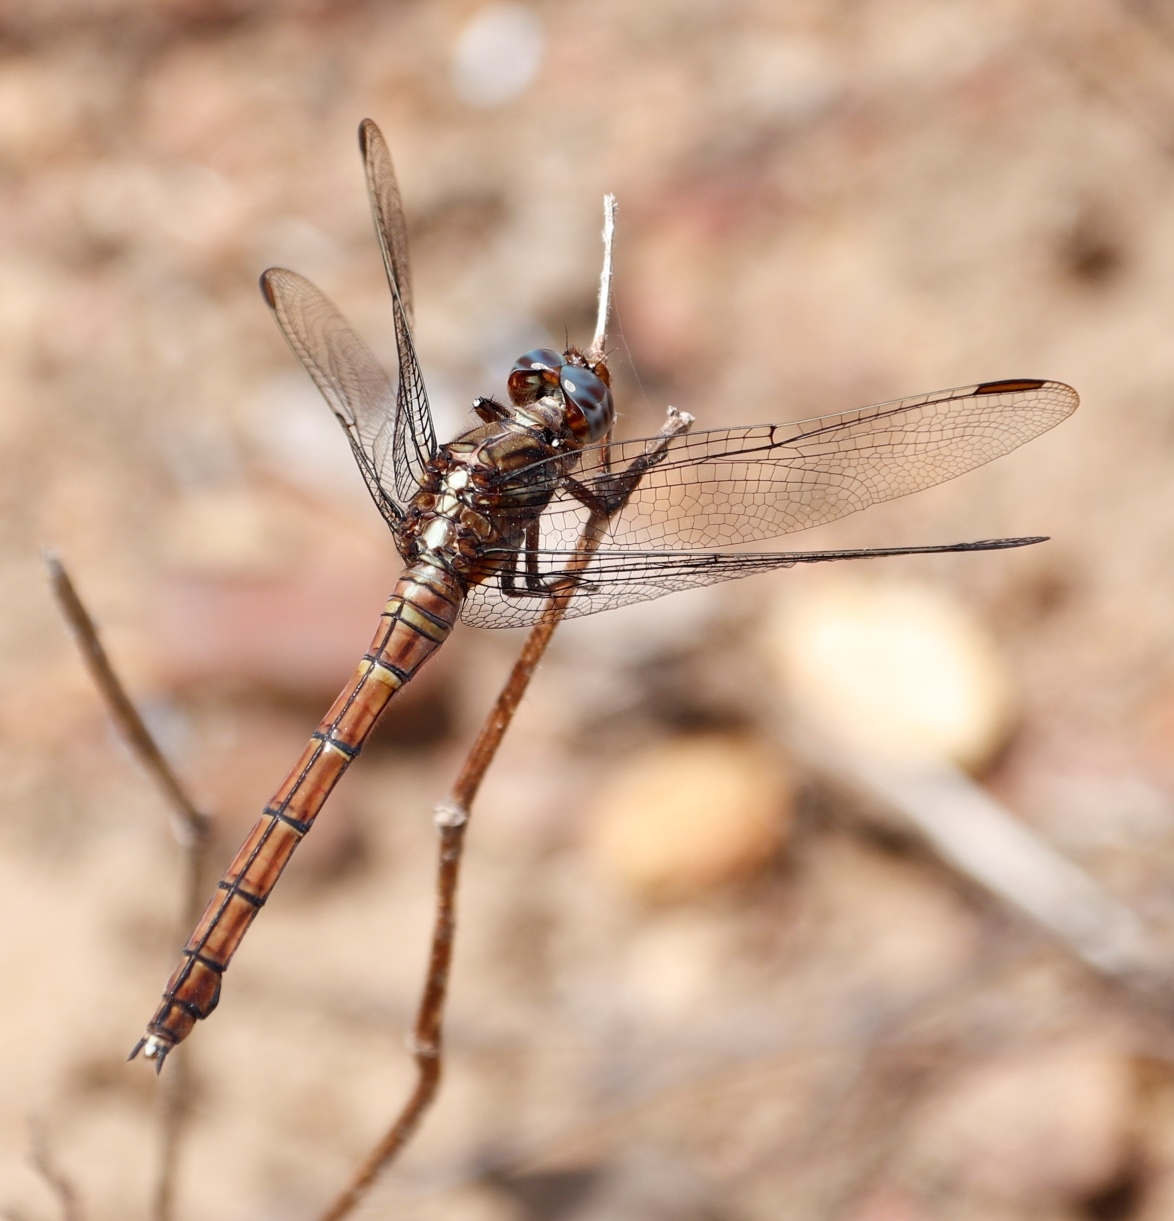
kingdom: Animalia
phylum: Arthropoda
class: Insecta
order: Odonata
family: Libellulidae
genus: Orthetrum
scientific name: Orthetrum julia
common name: Julia skimmer
